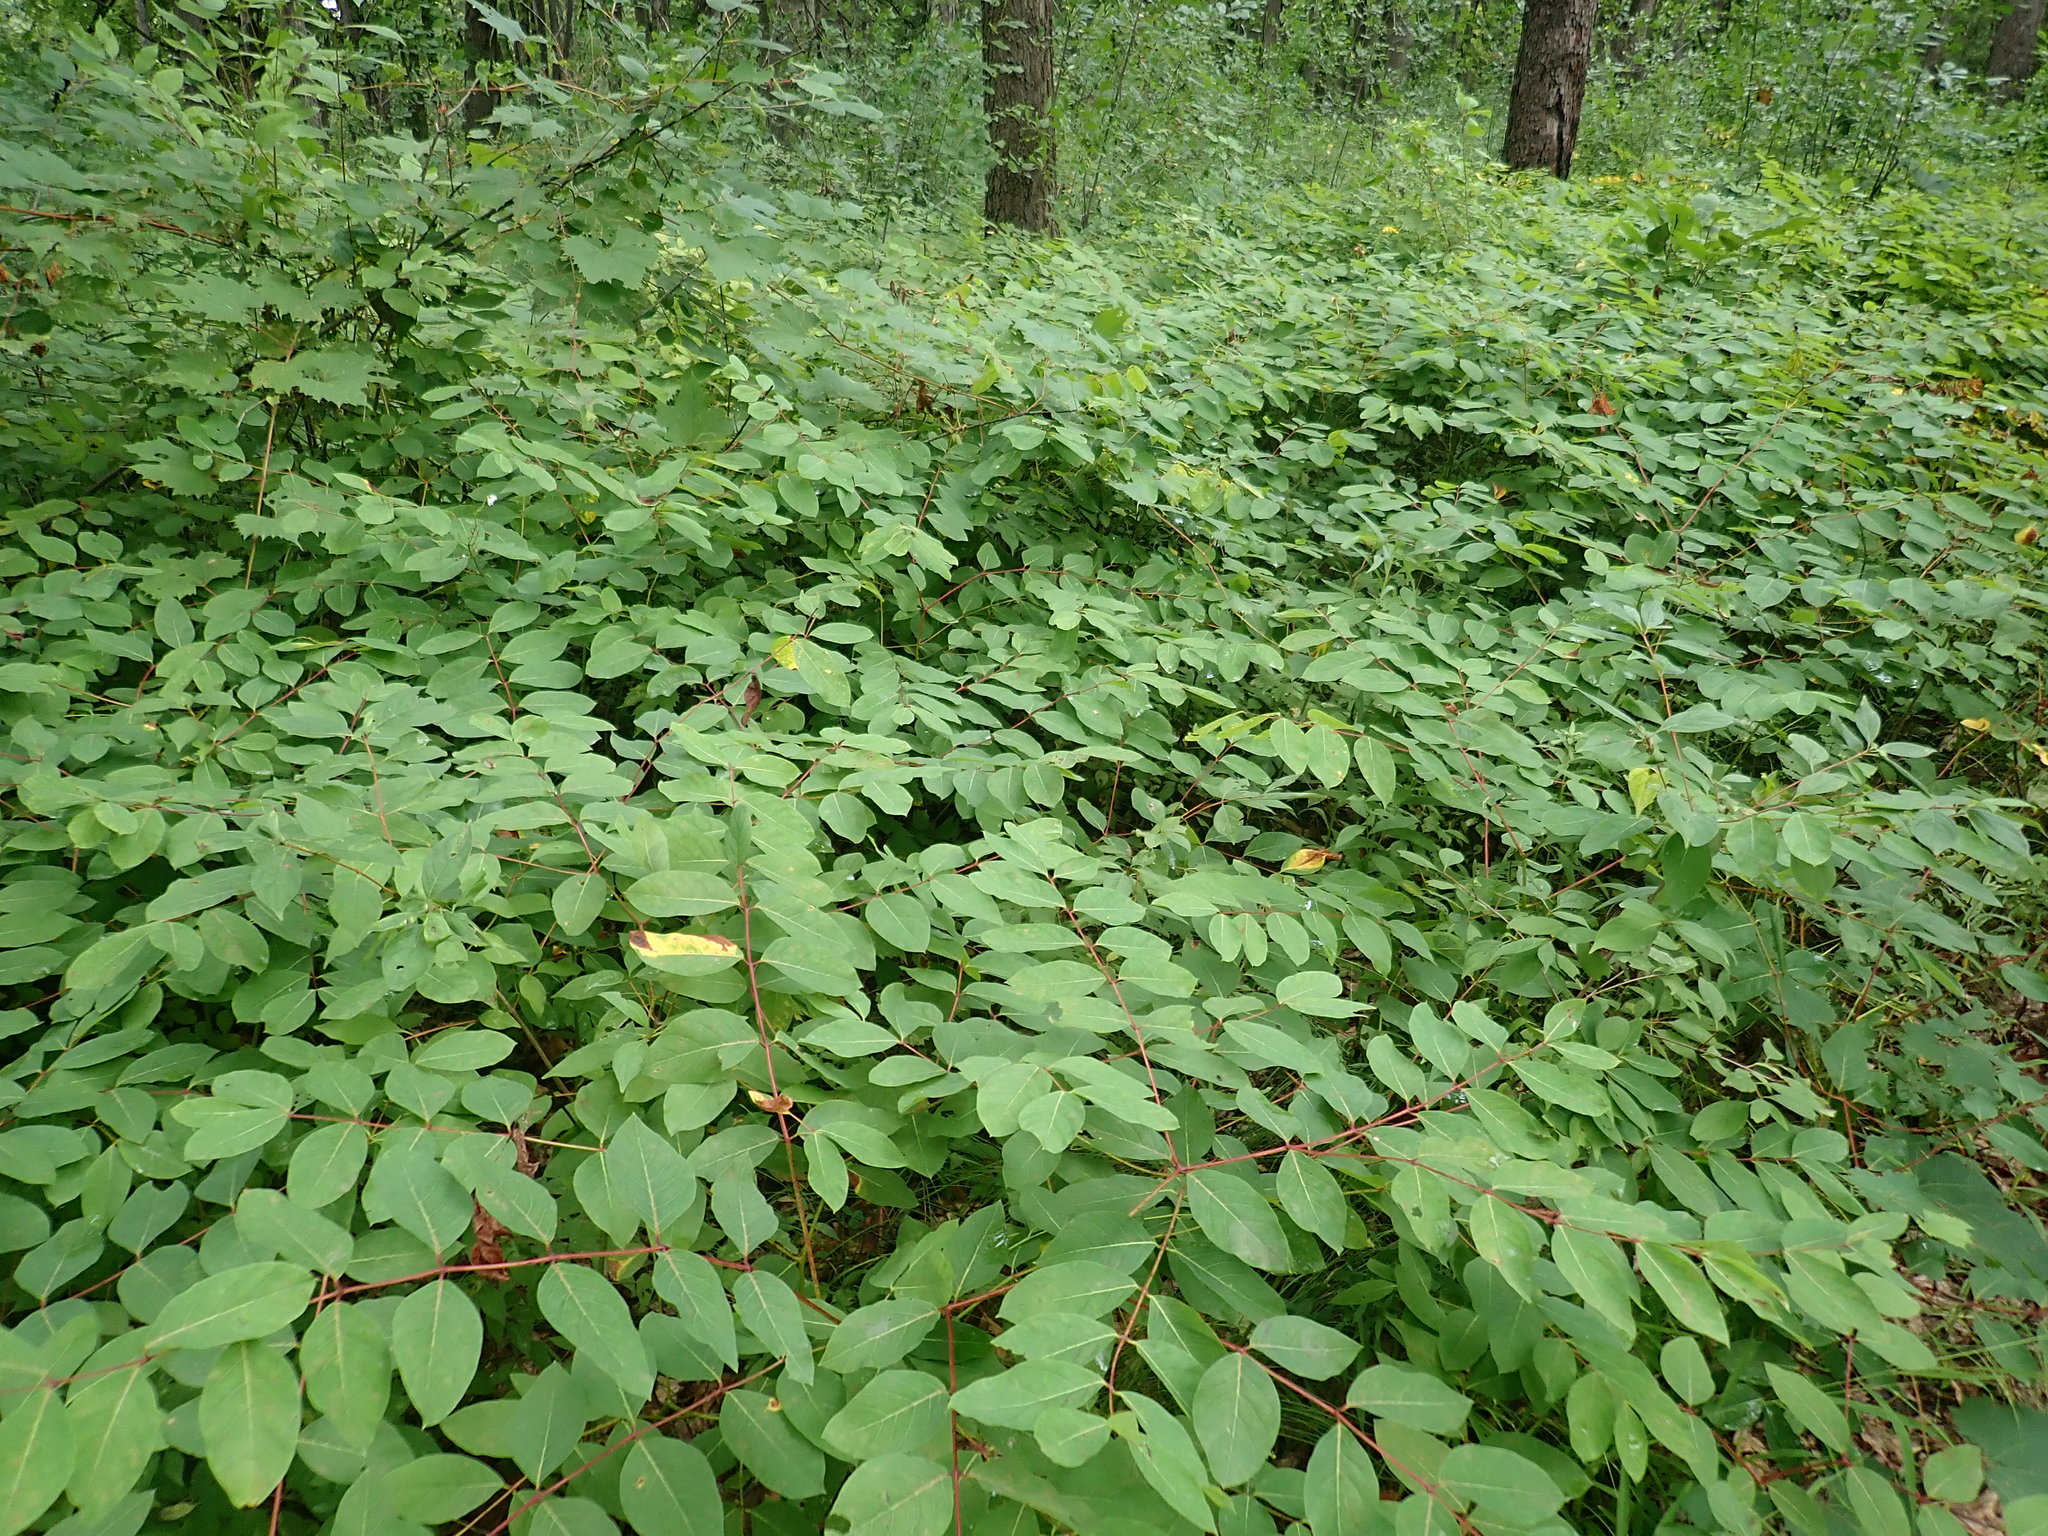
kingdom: Plantae
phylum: Tracheophyta
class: Magnoliopsida
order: Gentianales
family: Apocynaceae
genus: Apocynum
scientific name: Apocynum androsaemifolium
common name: Spreading dogbane
